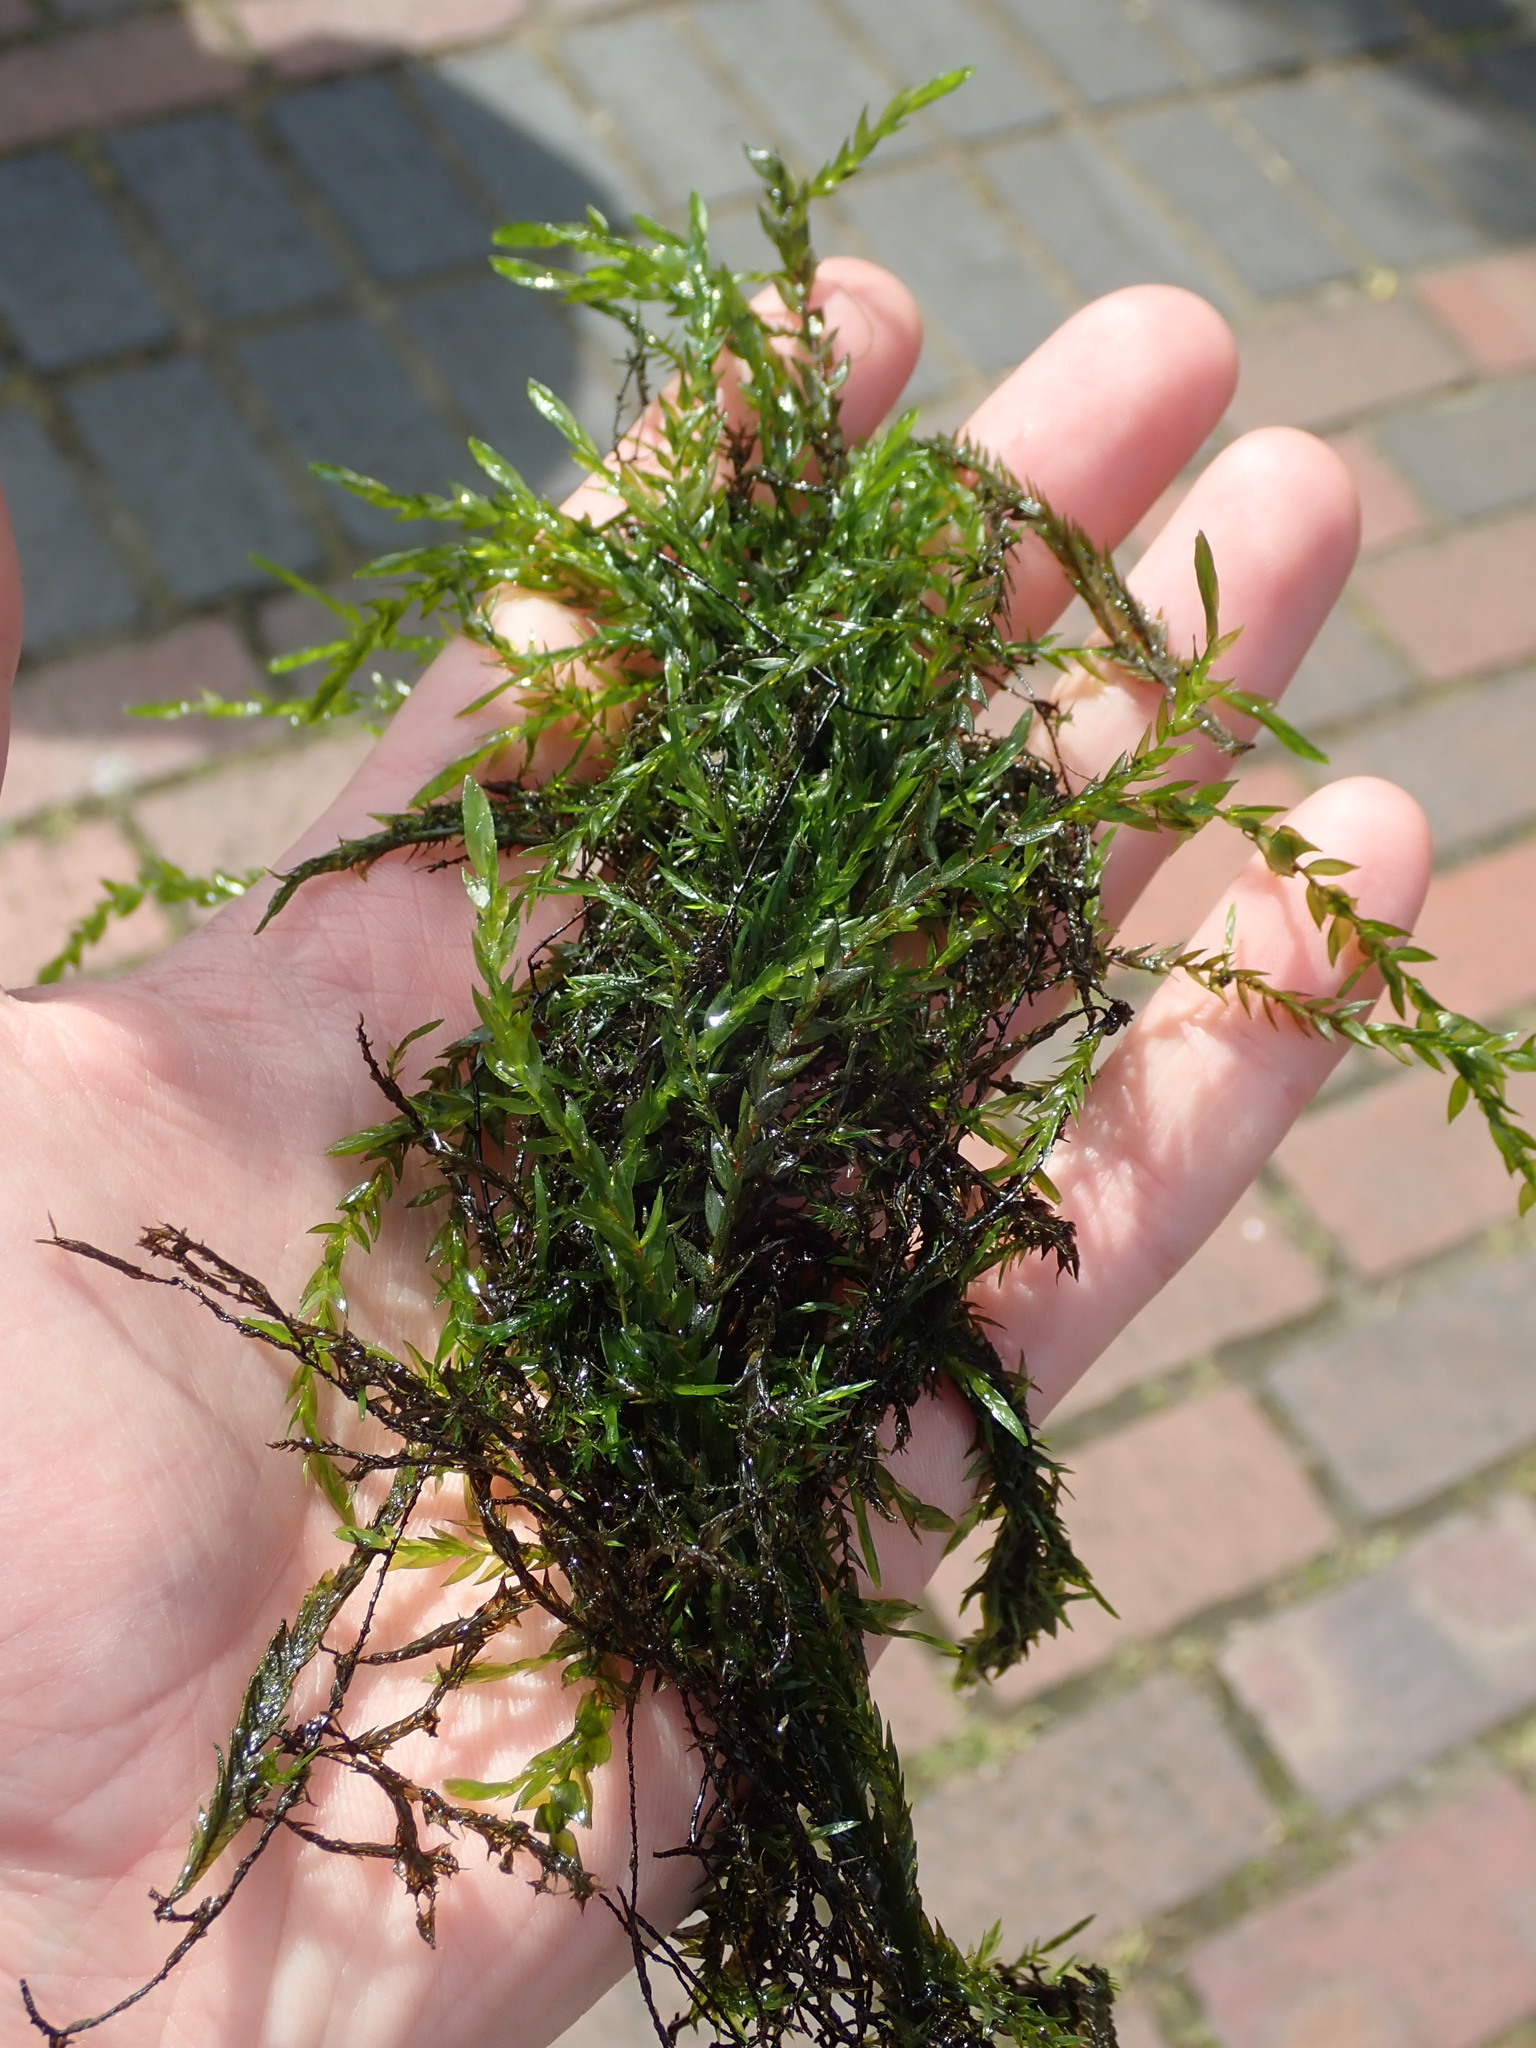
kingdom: Plantae
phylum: Bryophyta
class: Bryopsida
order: Hypnales
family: Fontinalaceae
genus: Fontinalis
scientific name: Fontinalis antipyretica
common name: Greater water-moss
